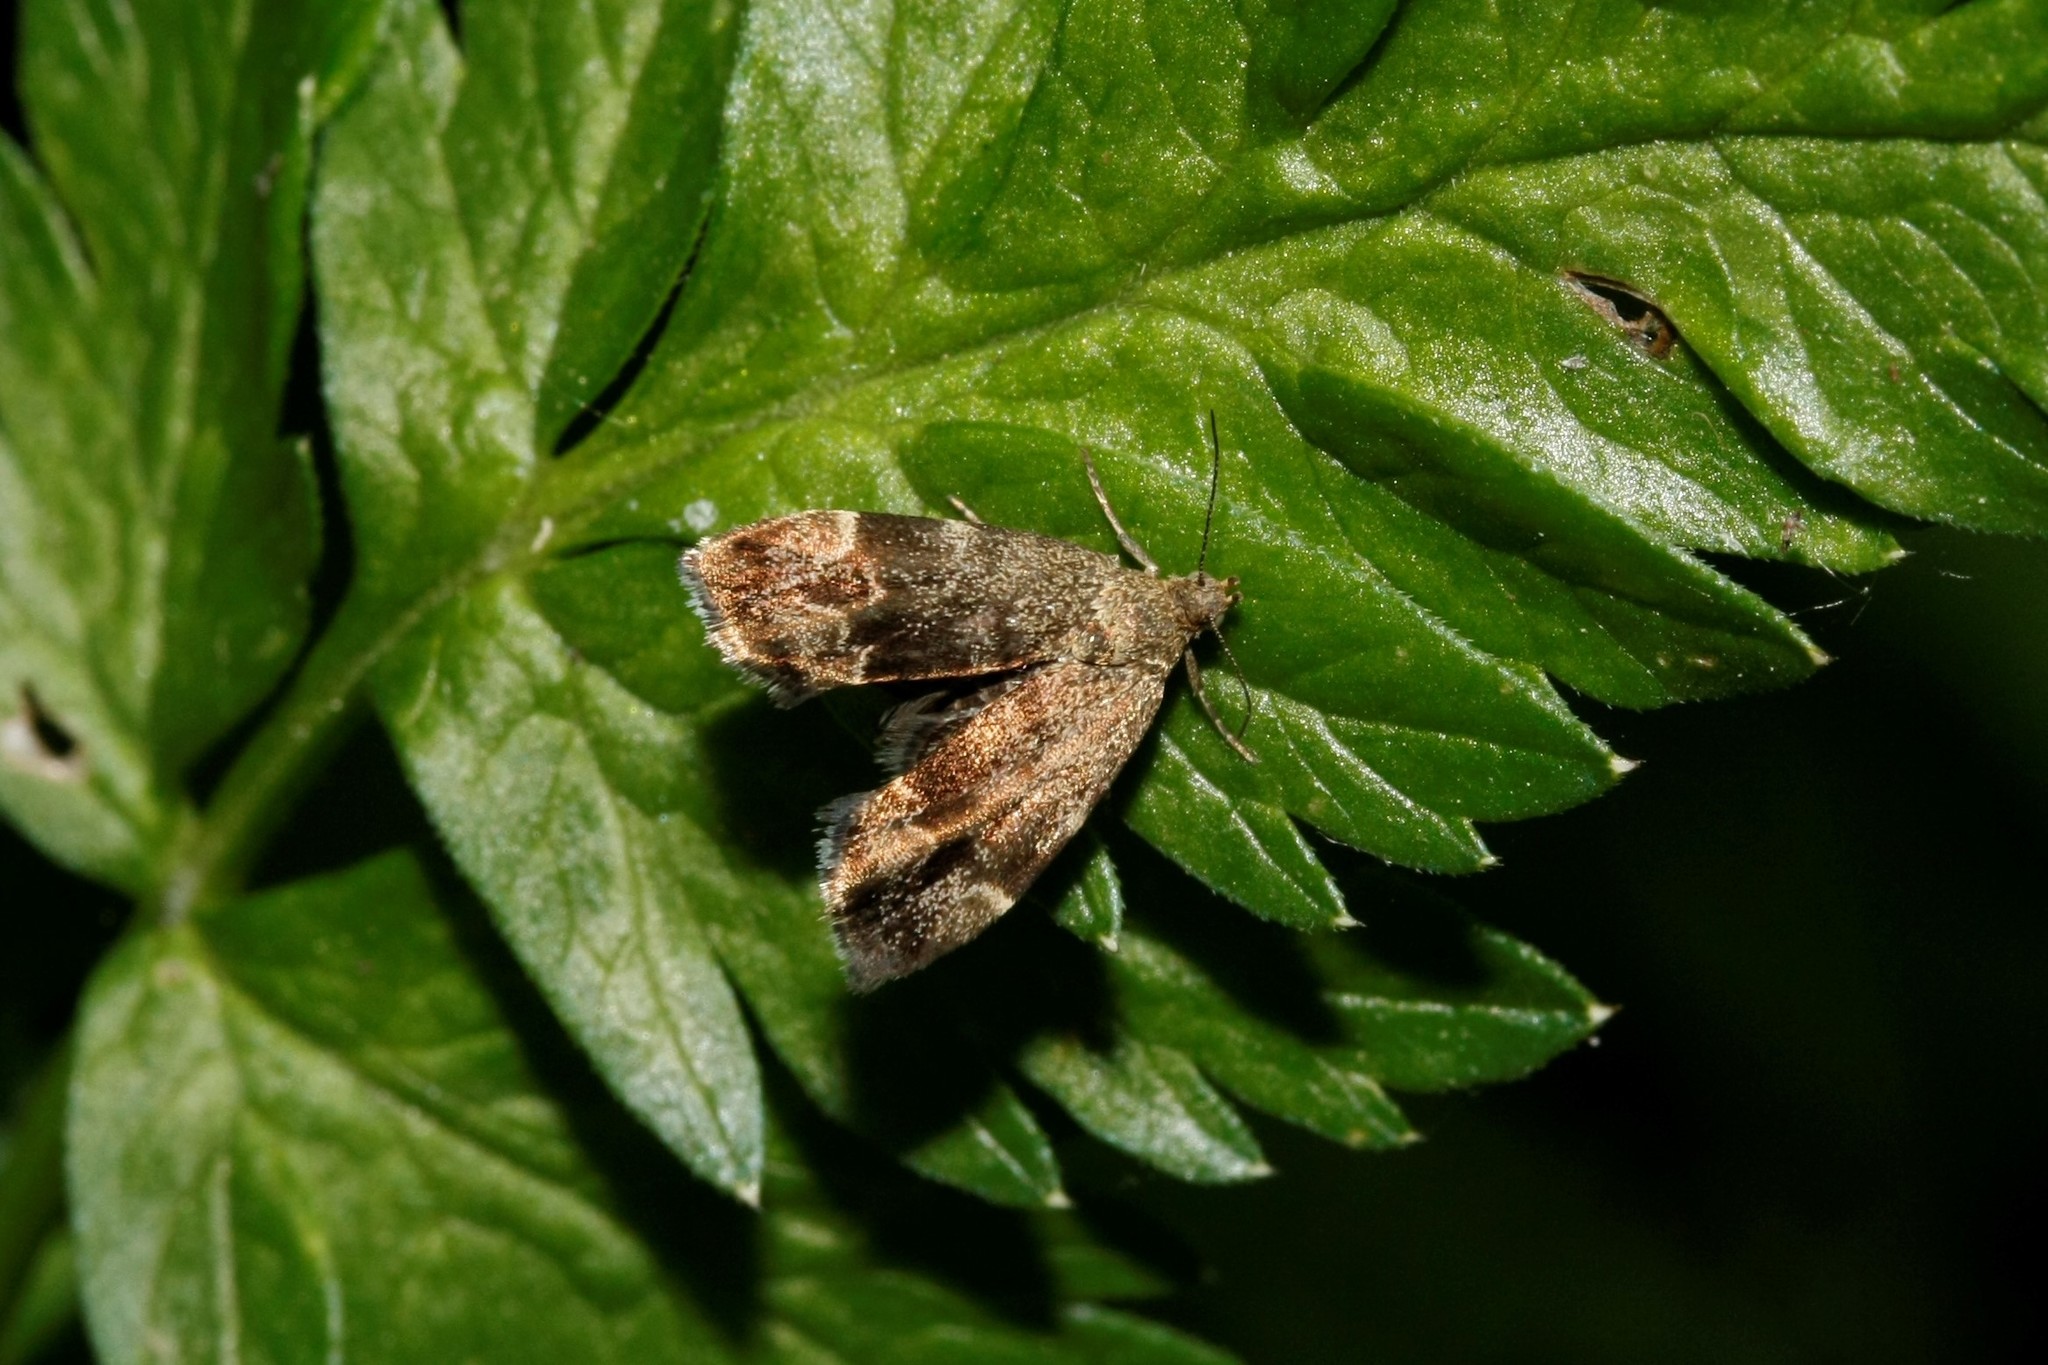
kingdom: Animalia
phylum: Arthropoda
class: Insecta
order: Lepidoptera
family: Choreutidae
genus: Anthophila
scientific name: Anthophila fabriciana
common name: Nettle-tap
